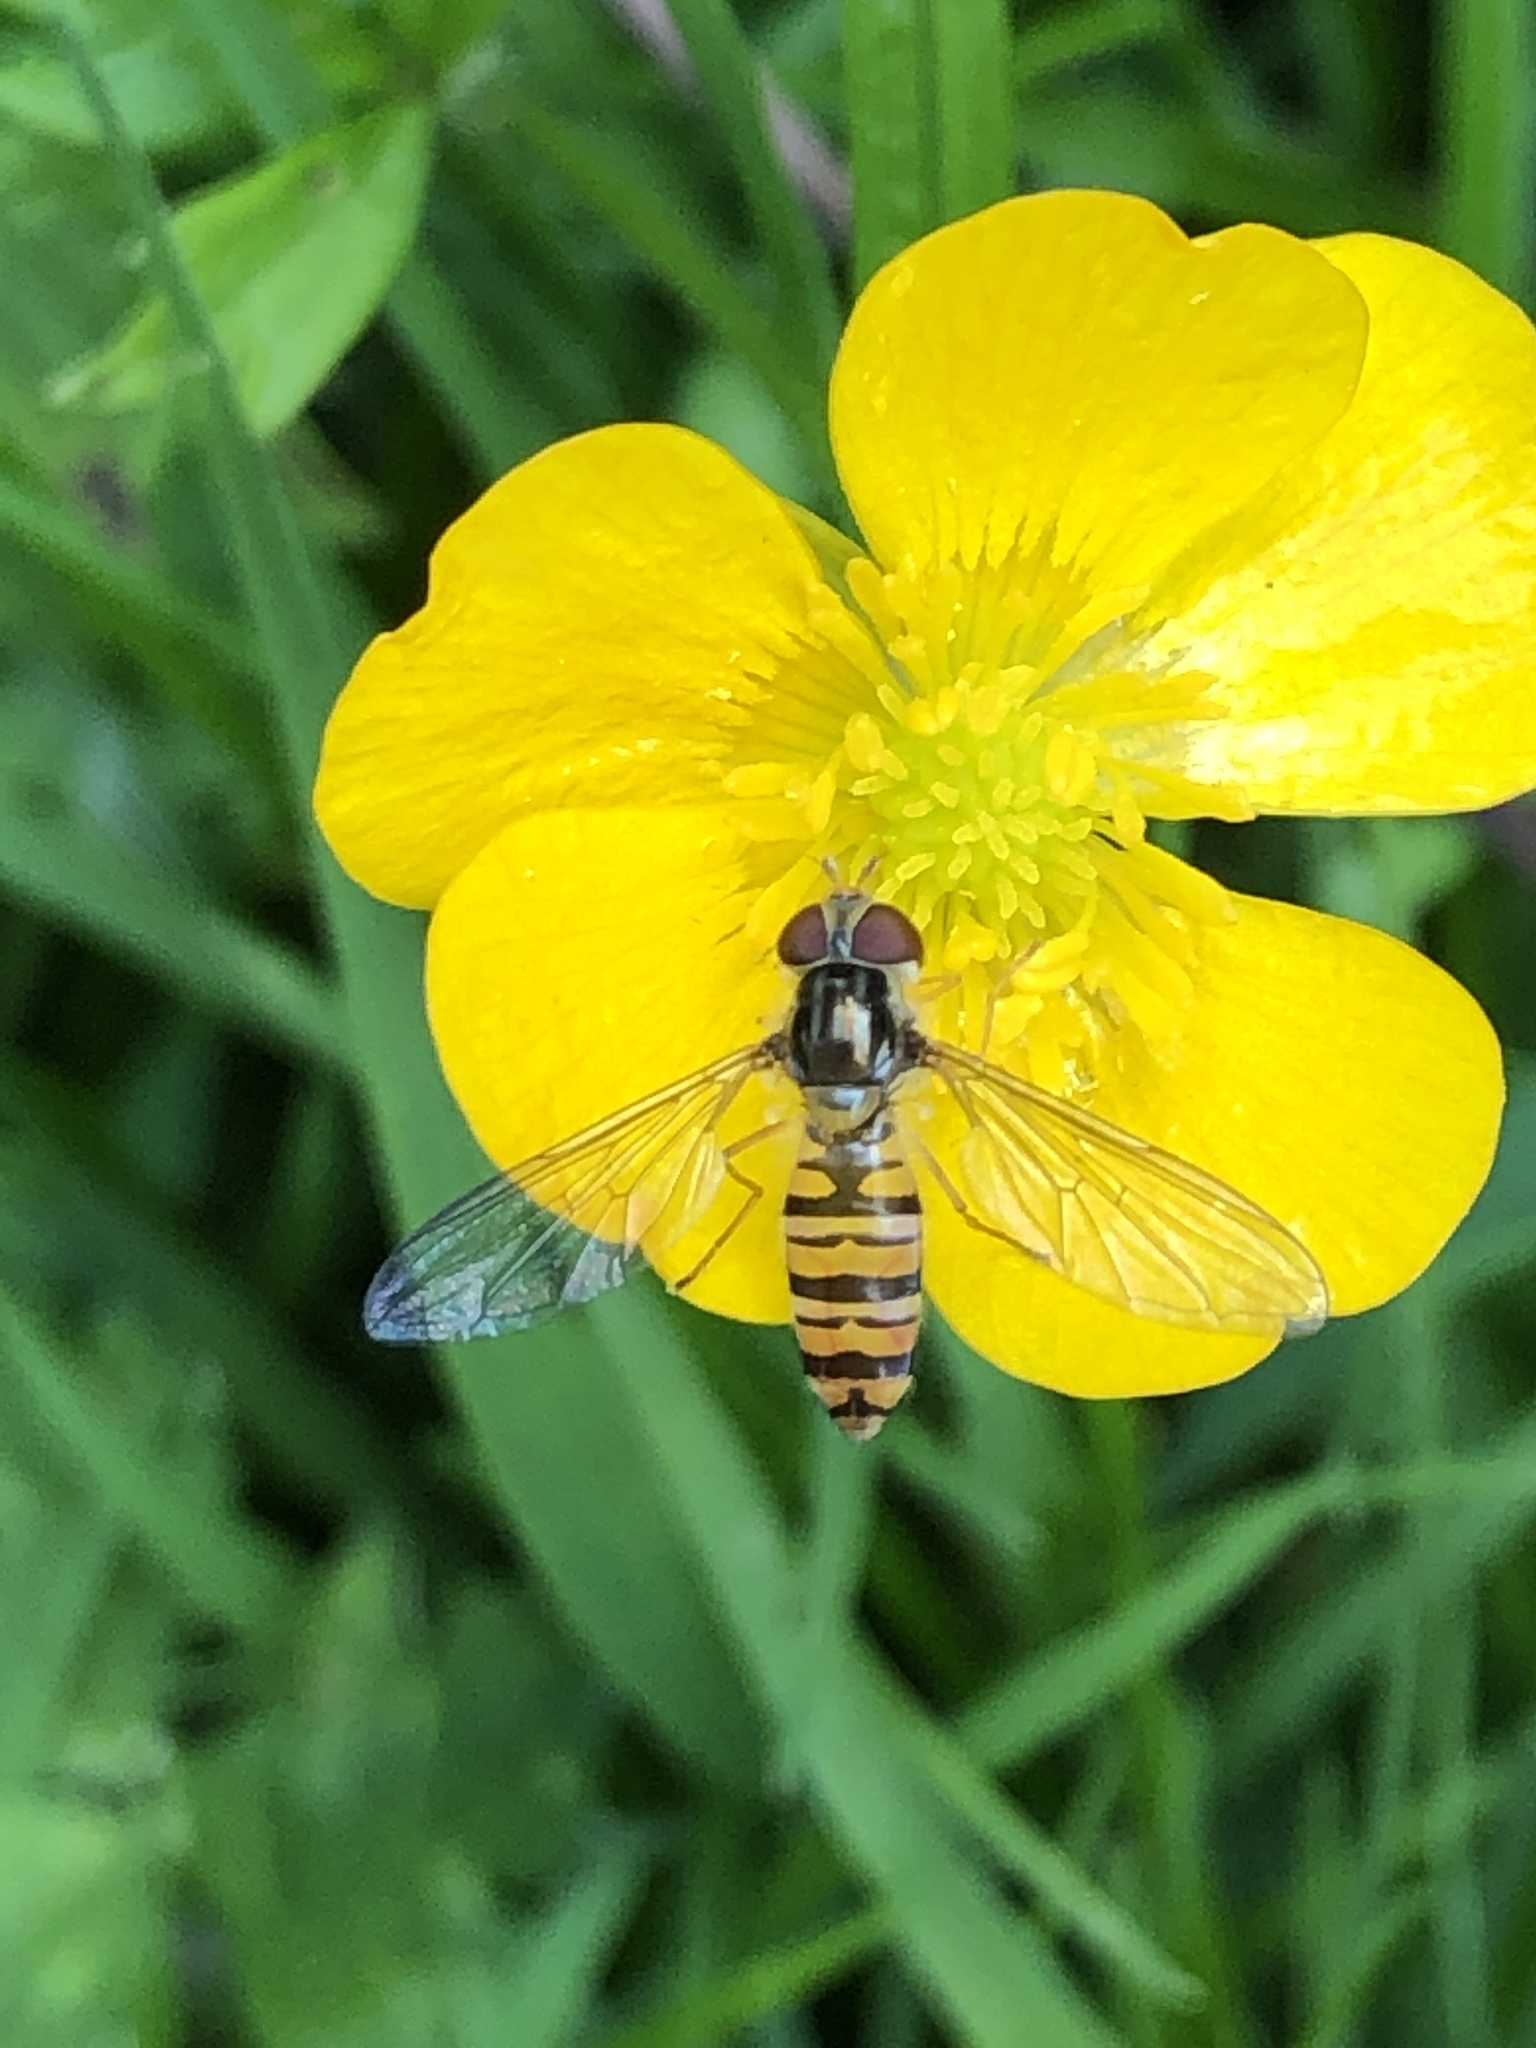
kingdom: Animalia
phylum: Arthropoda
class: Insecta
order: Diptera
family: Syrphidae
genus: Episyrphus
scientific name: Episyrphus balteatus
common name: Marmalade hoverfly
